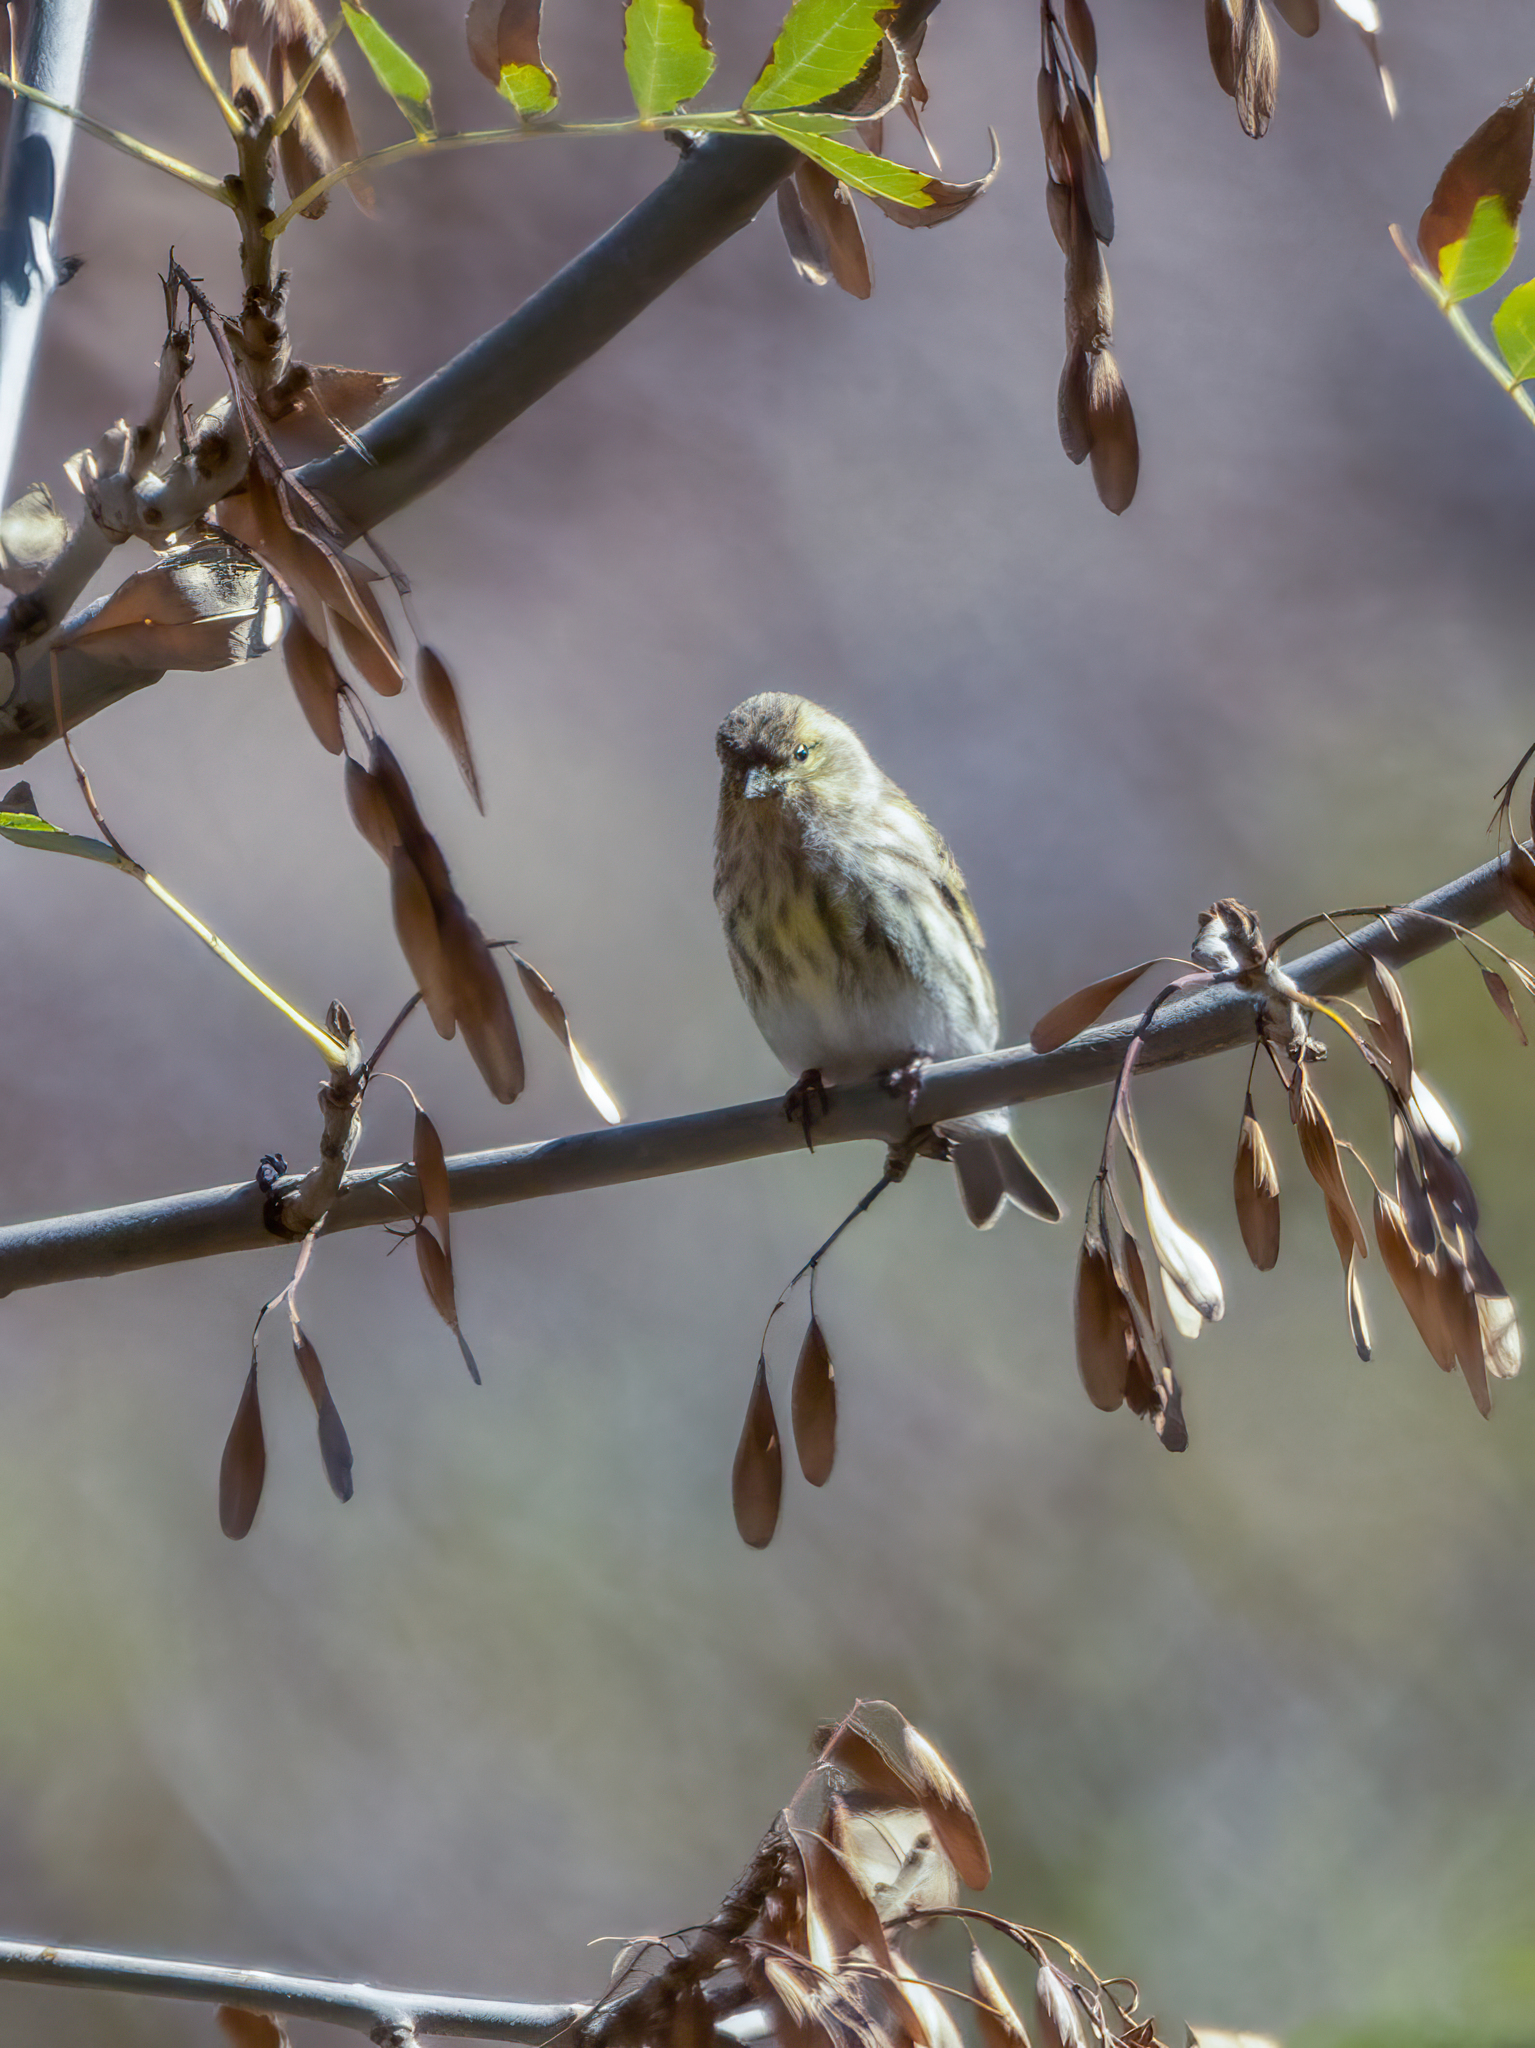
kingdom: Animalia
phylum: Chordata
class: Aves
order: Passeriformes
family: Fringillidae
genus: Serinus
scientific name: Serinus serinus
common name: European serin
